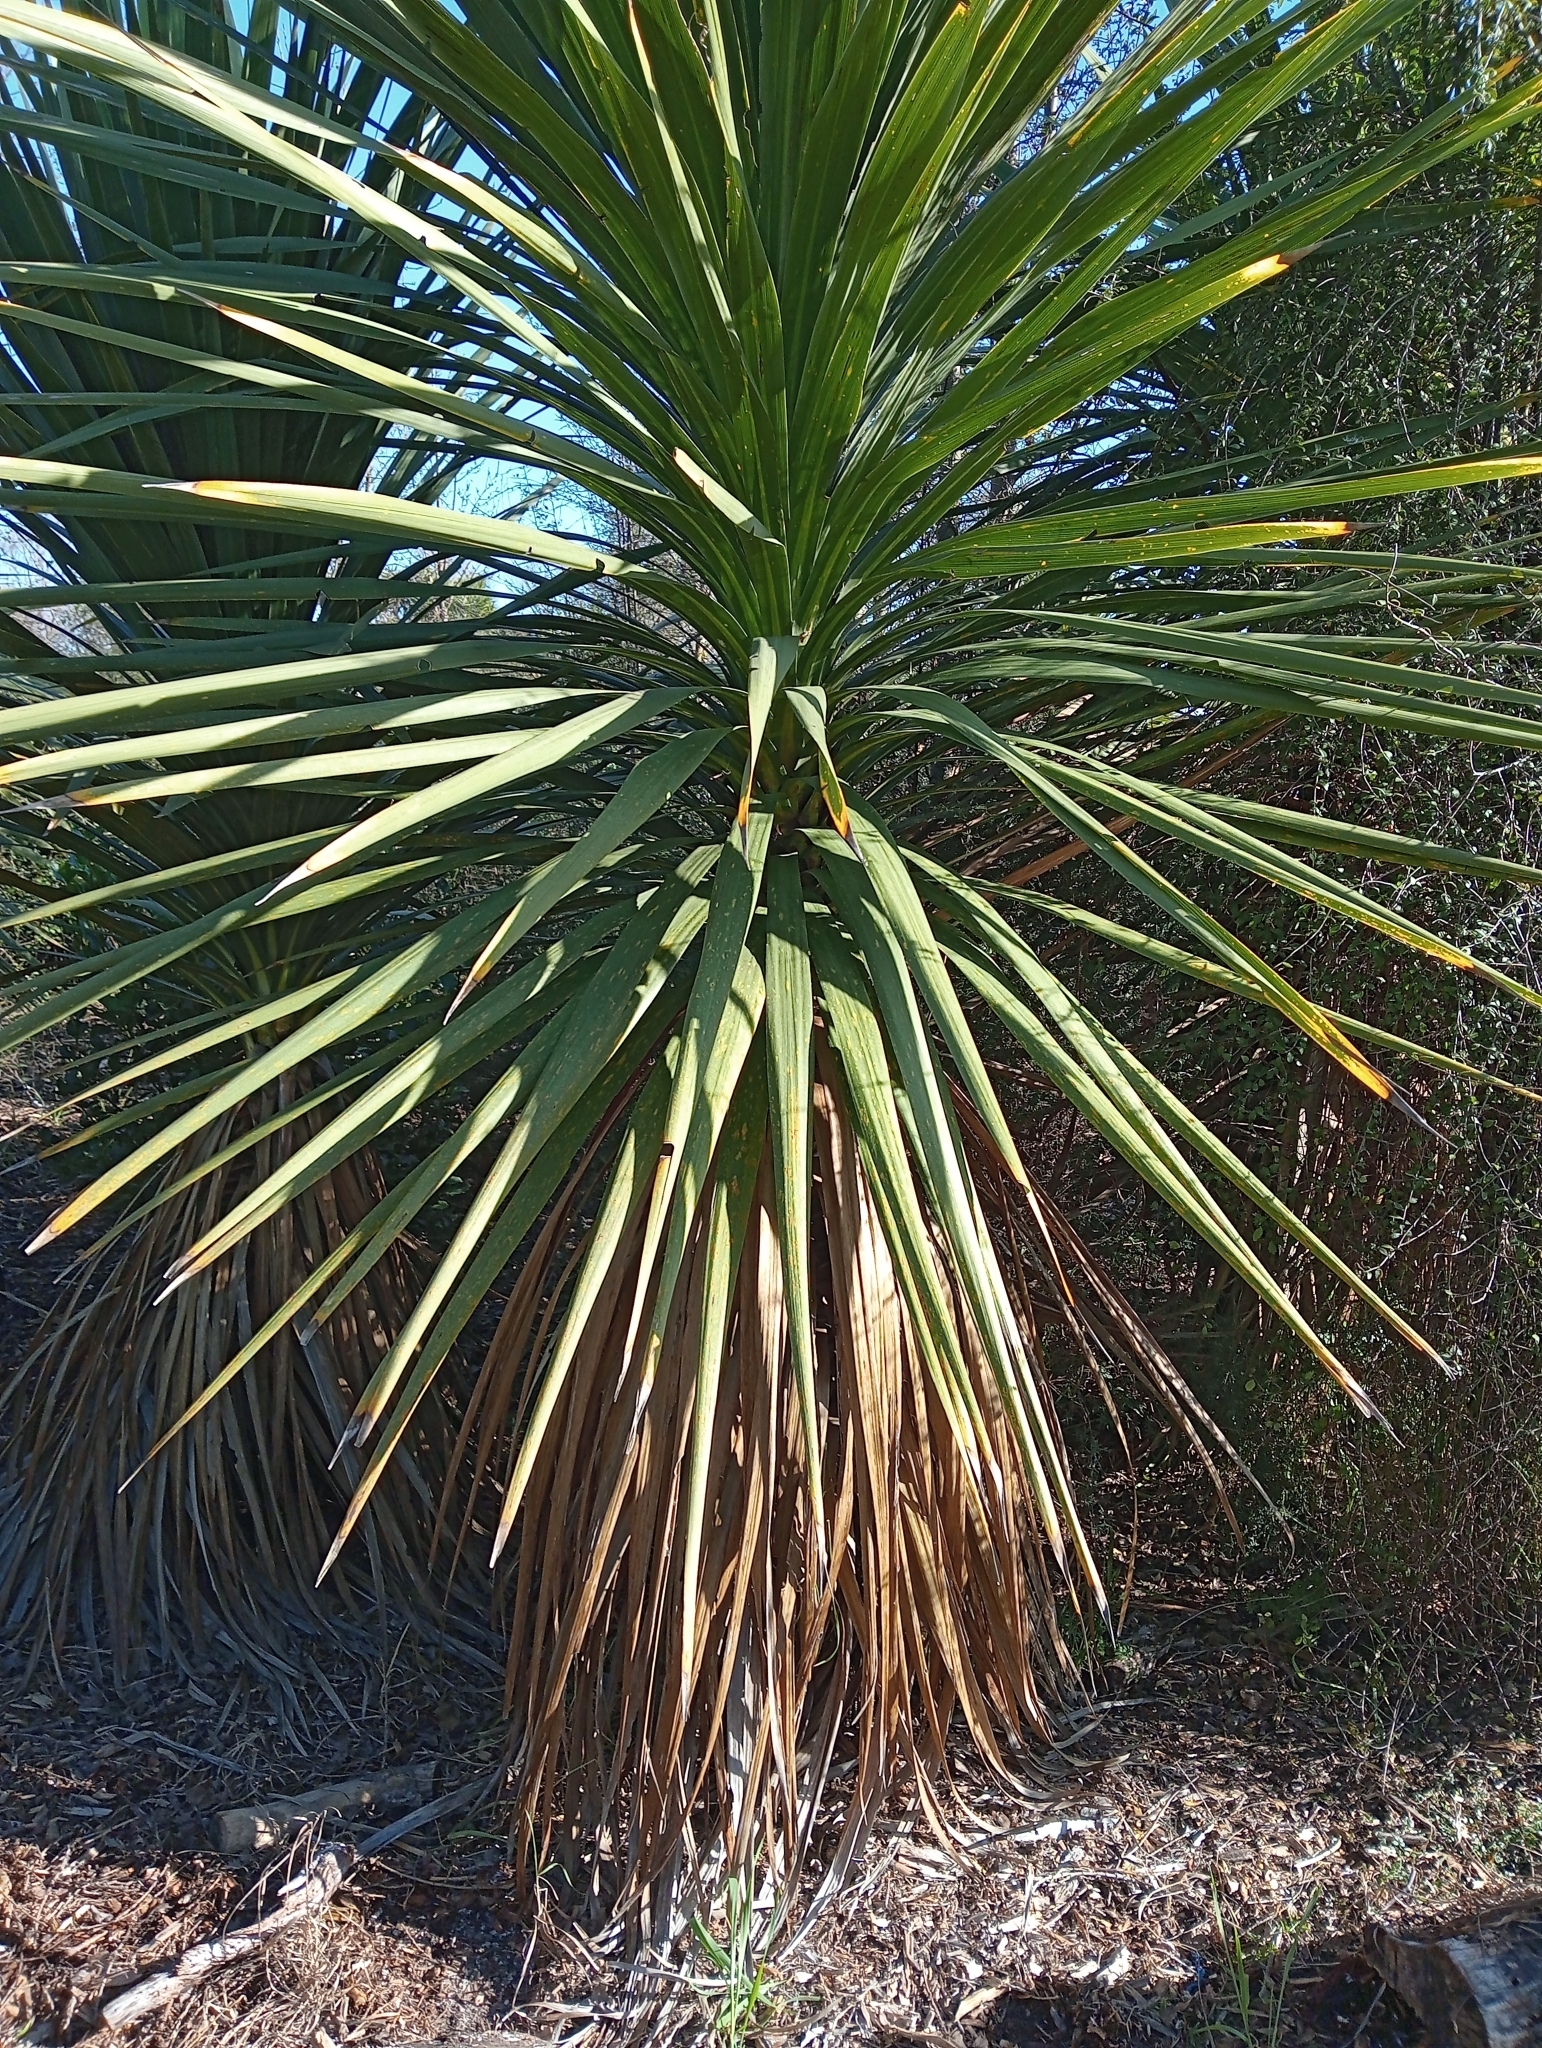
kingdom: Plantae
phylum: Tracheophyta
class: Liliopsida
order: Asparagales
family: Asparagaceae
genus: Cordyline
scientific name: Cordyline australis
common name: Cabbage-palm
